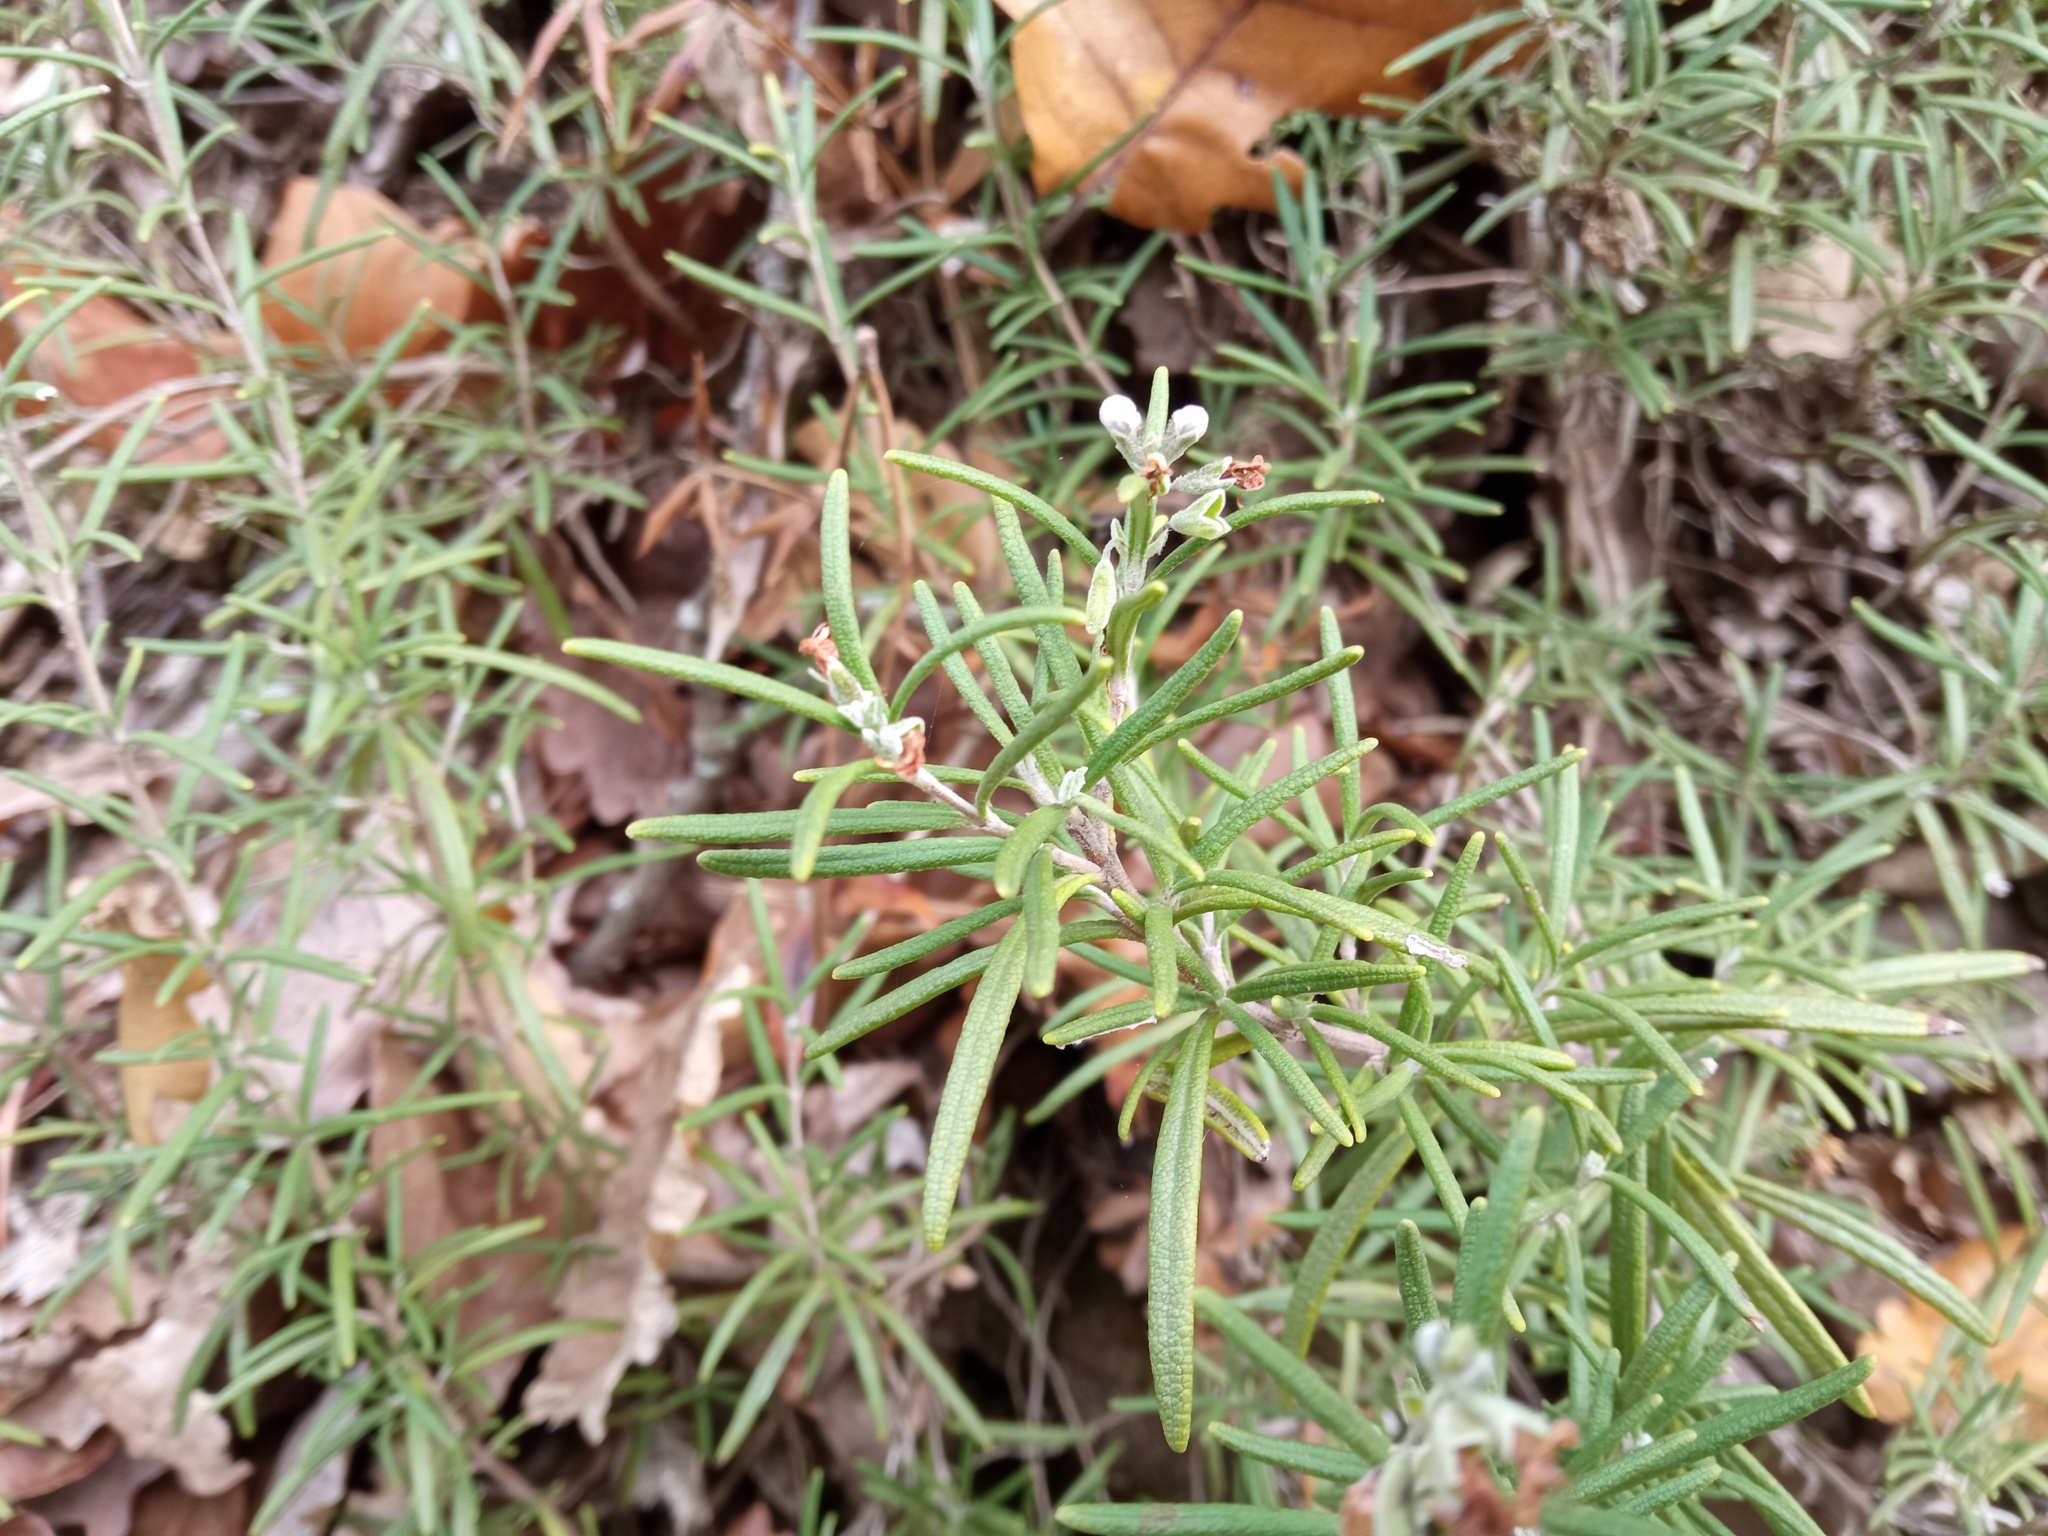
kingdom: Plantae
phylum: Tracheophyta
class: Magnoliopsida
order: Lamiales
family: Lamiaceae
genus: Salvia
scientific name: Salvia rosmarinus
